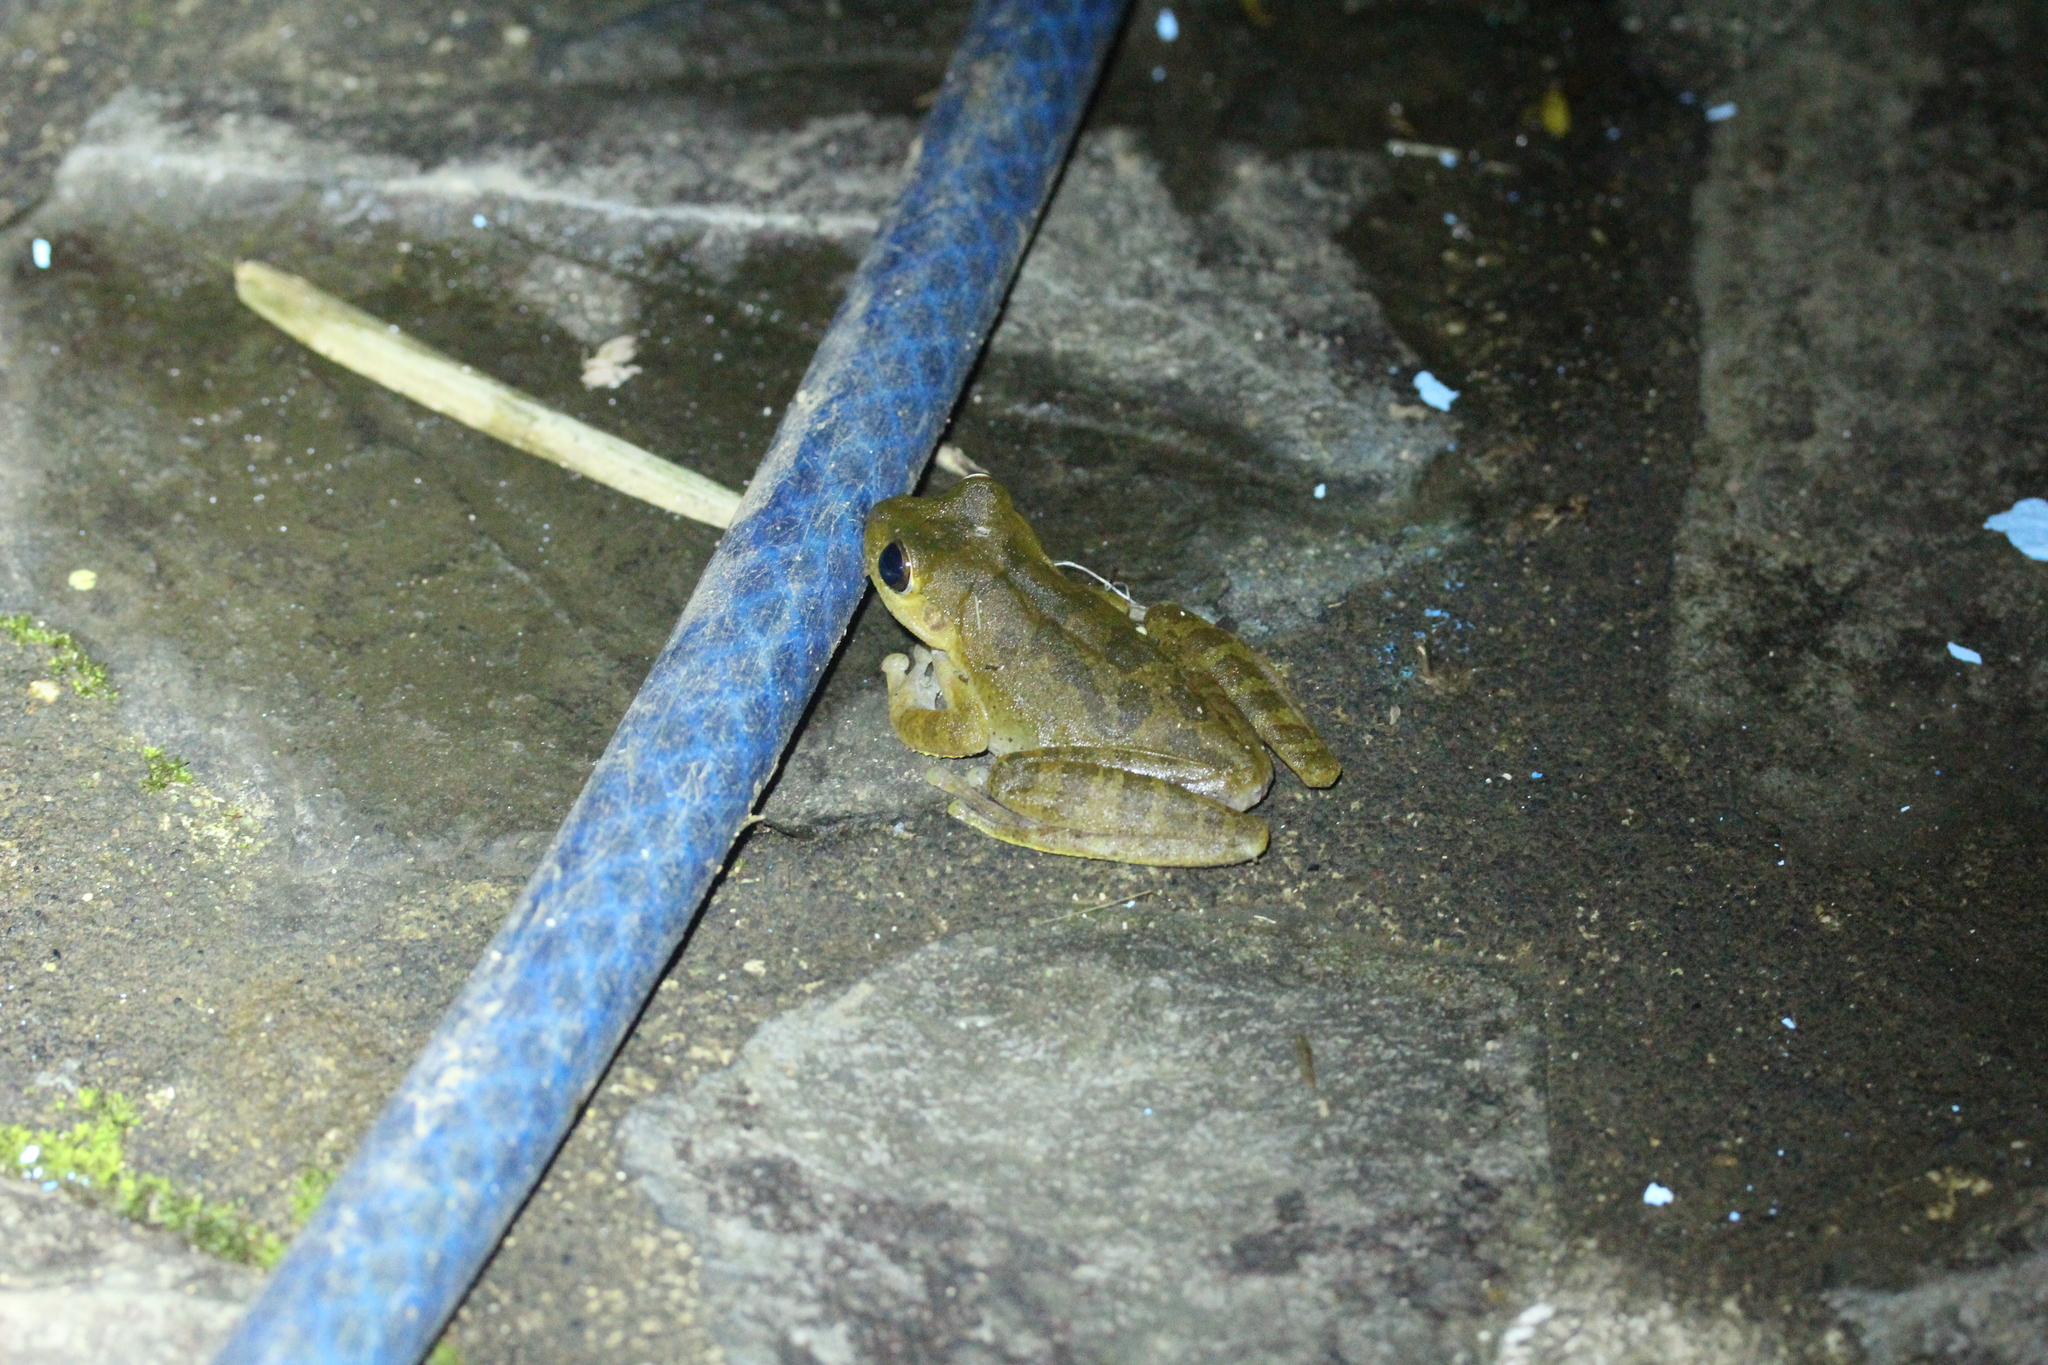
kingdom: Animalia
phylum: Chordata
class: Amphibia
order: Anura
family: Hylidae
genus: Smilisca
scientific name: Smilisca sordida
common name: Veragua cross-banded treefrog
